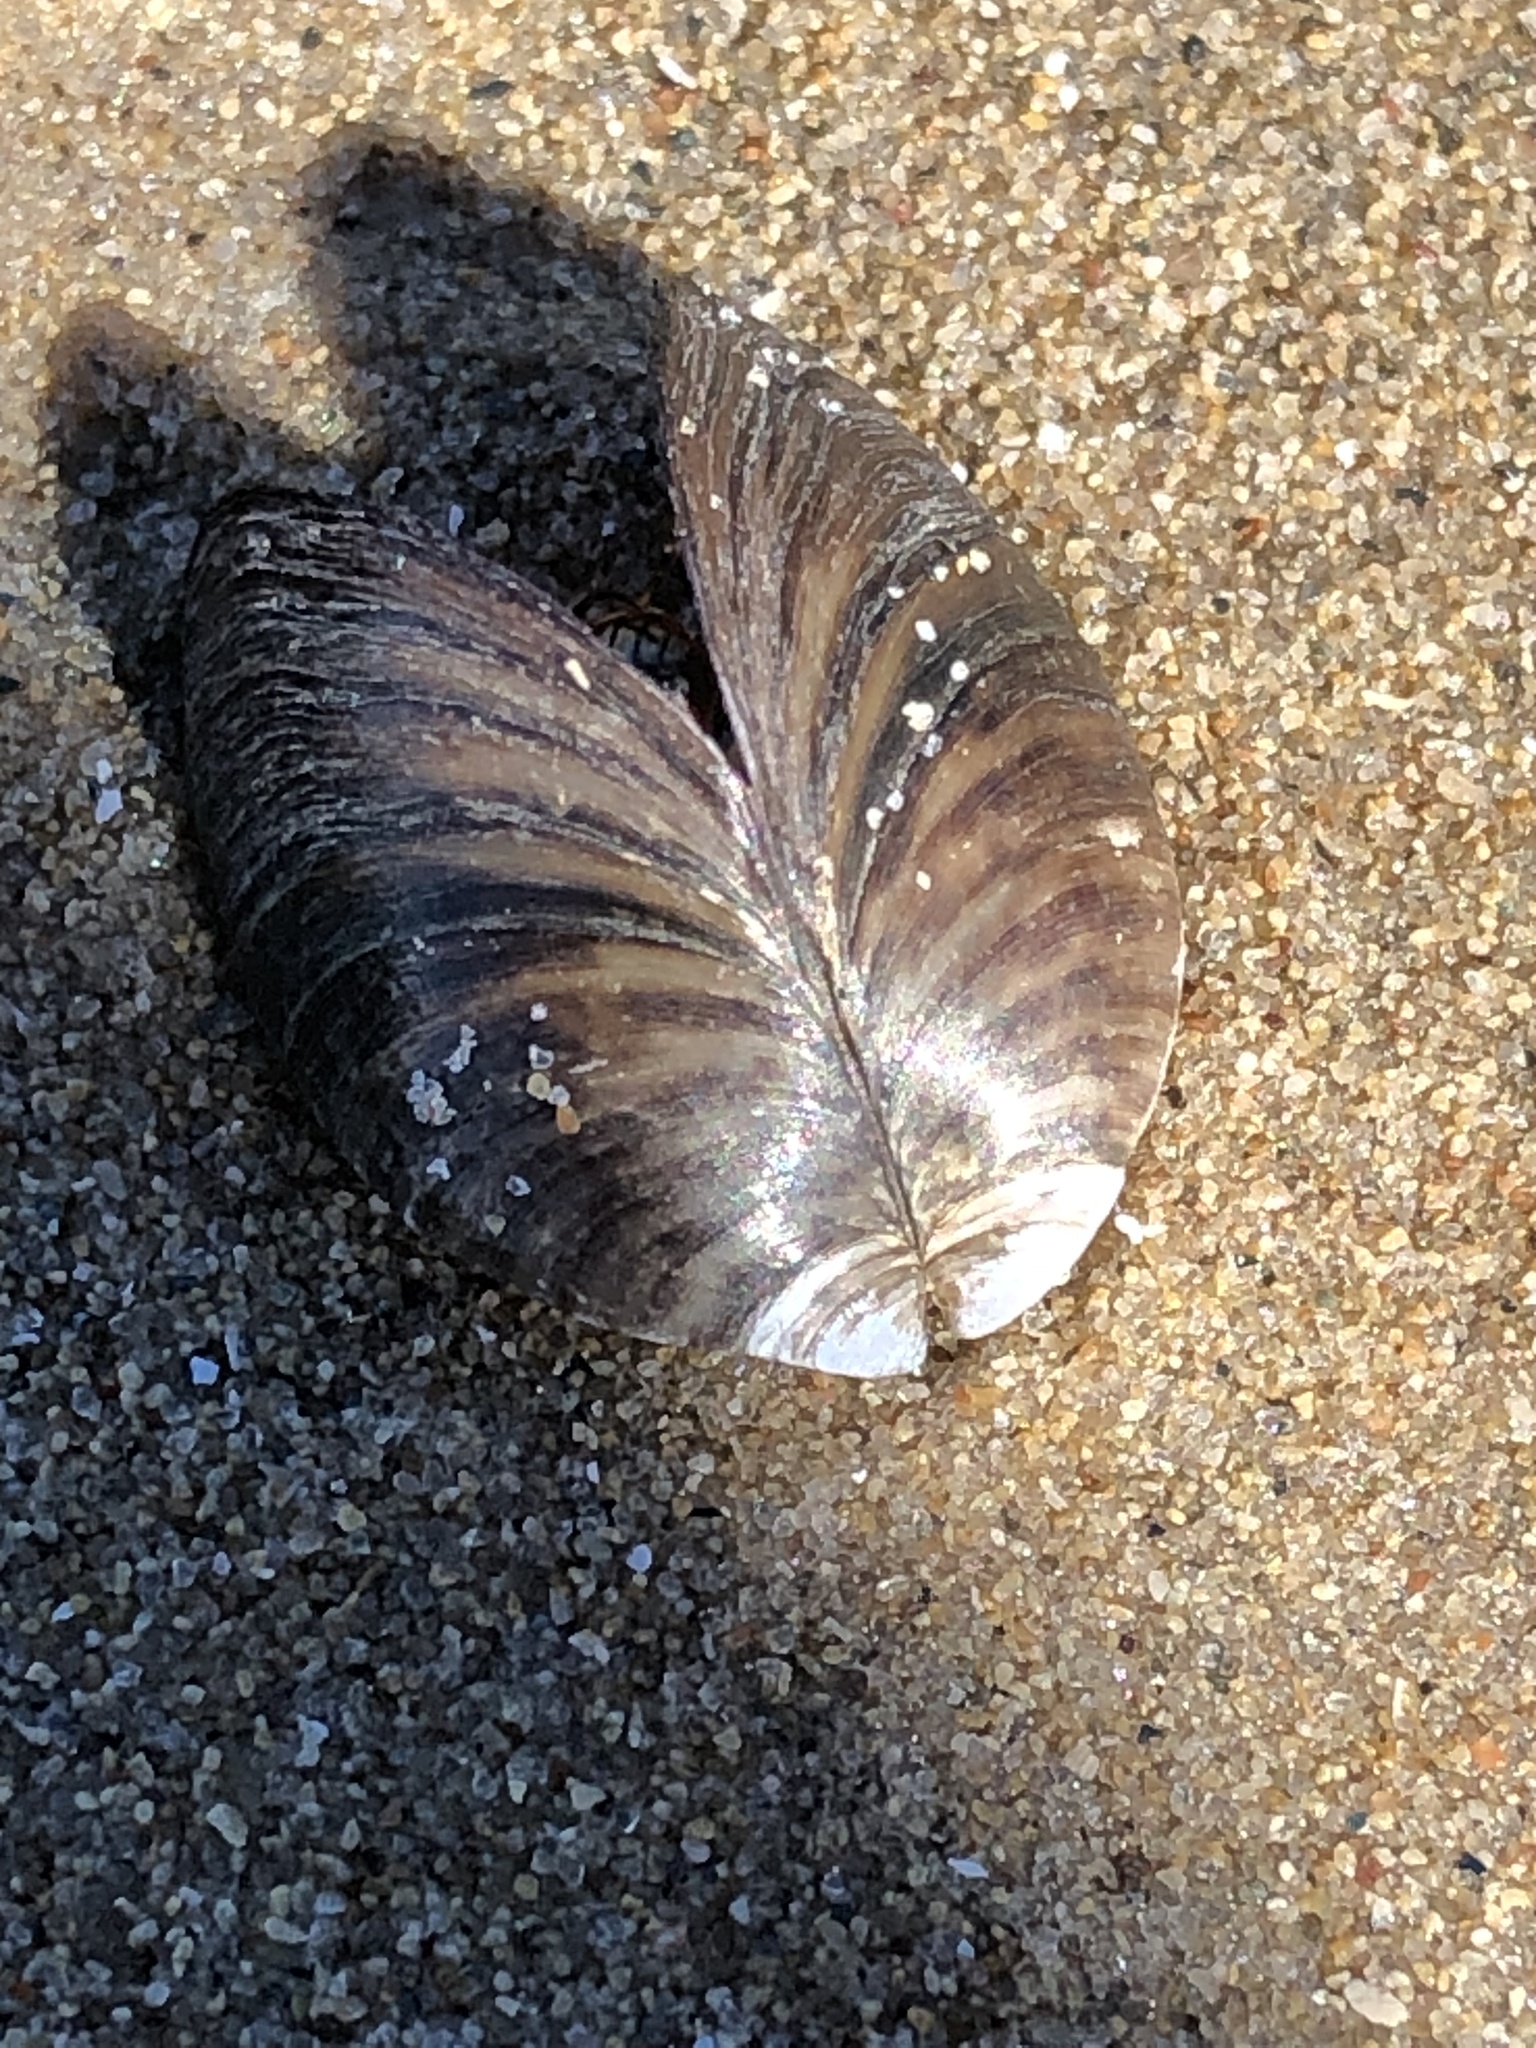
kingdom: Animalia
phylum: Mollusca
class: Bivalvia
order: Myida
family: Dreissenidae
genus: Dreissena
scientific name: Dreissena polymorpha
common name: Zebra mussel
